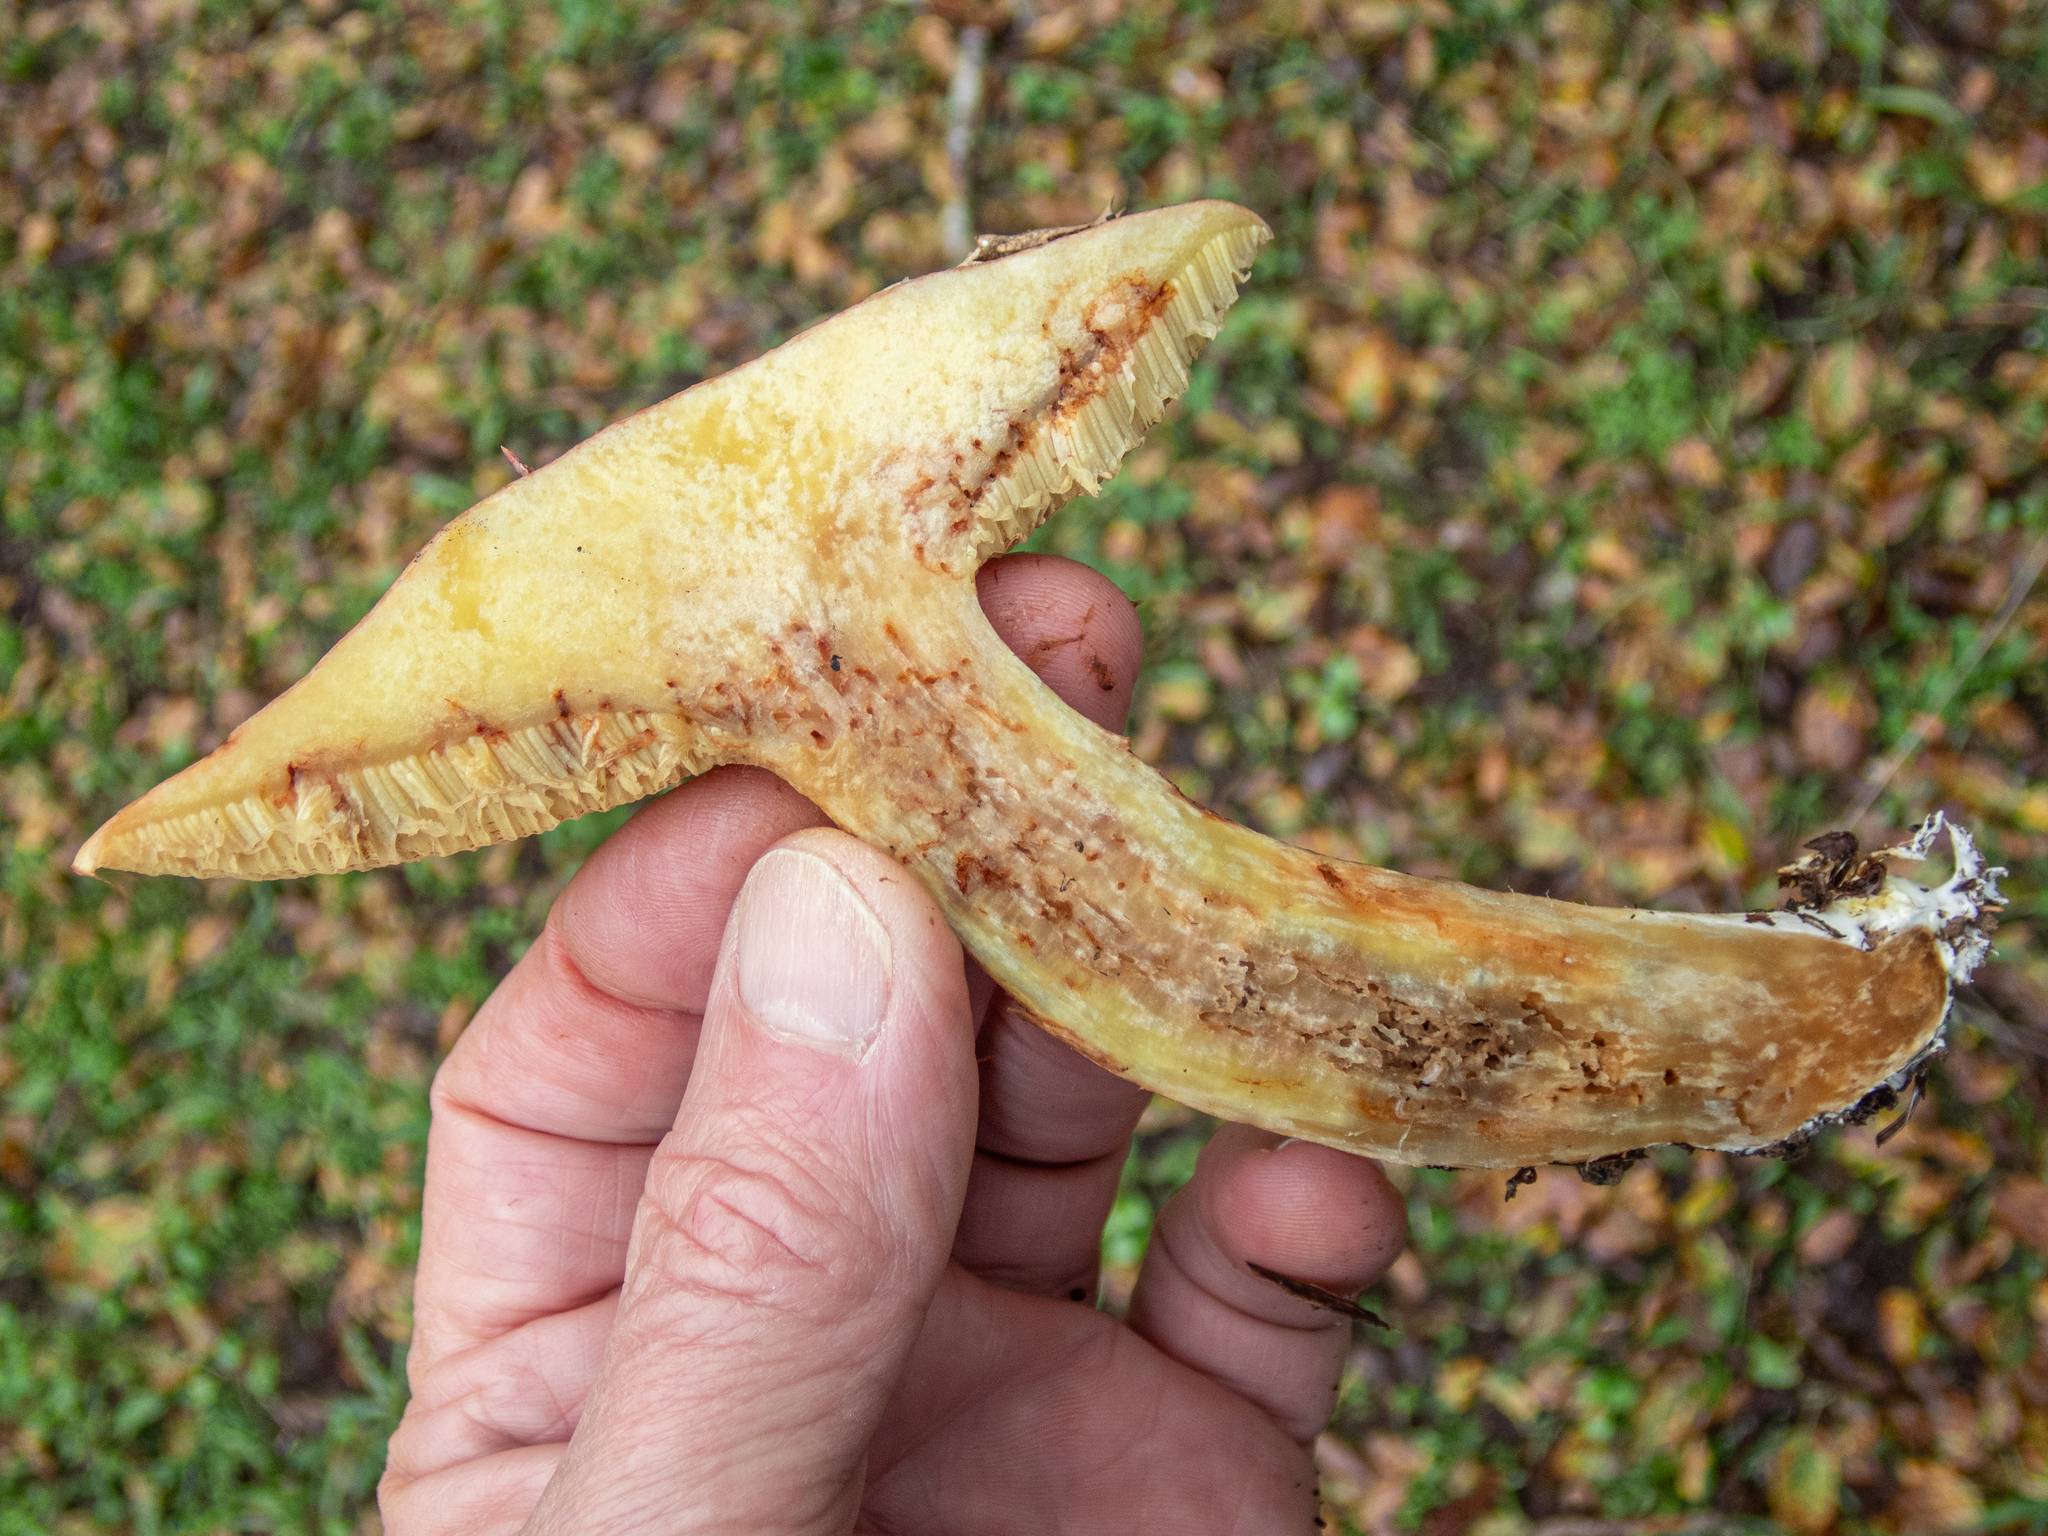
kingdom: Fungi
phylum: Basidiomycota
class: Agaricomycetes
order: Boletales
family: Suillaceae
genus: Suillus
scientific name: Suillus caerulescens
